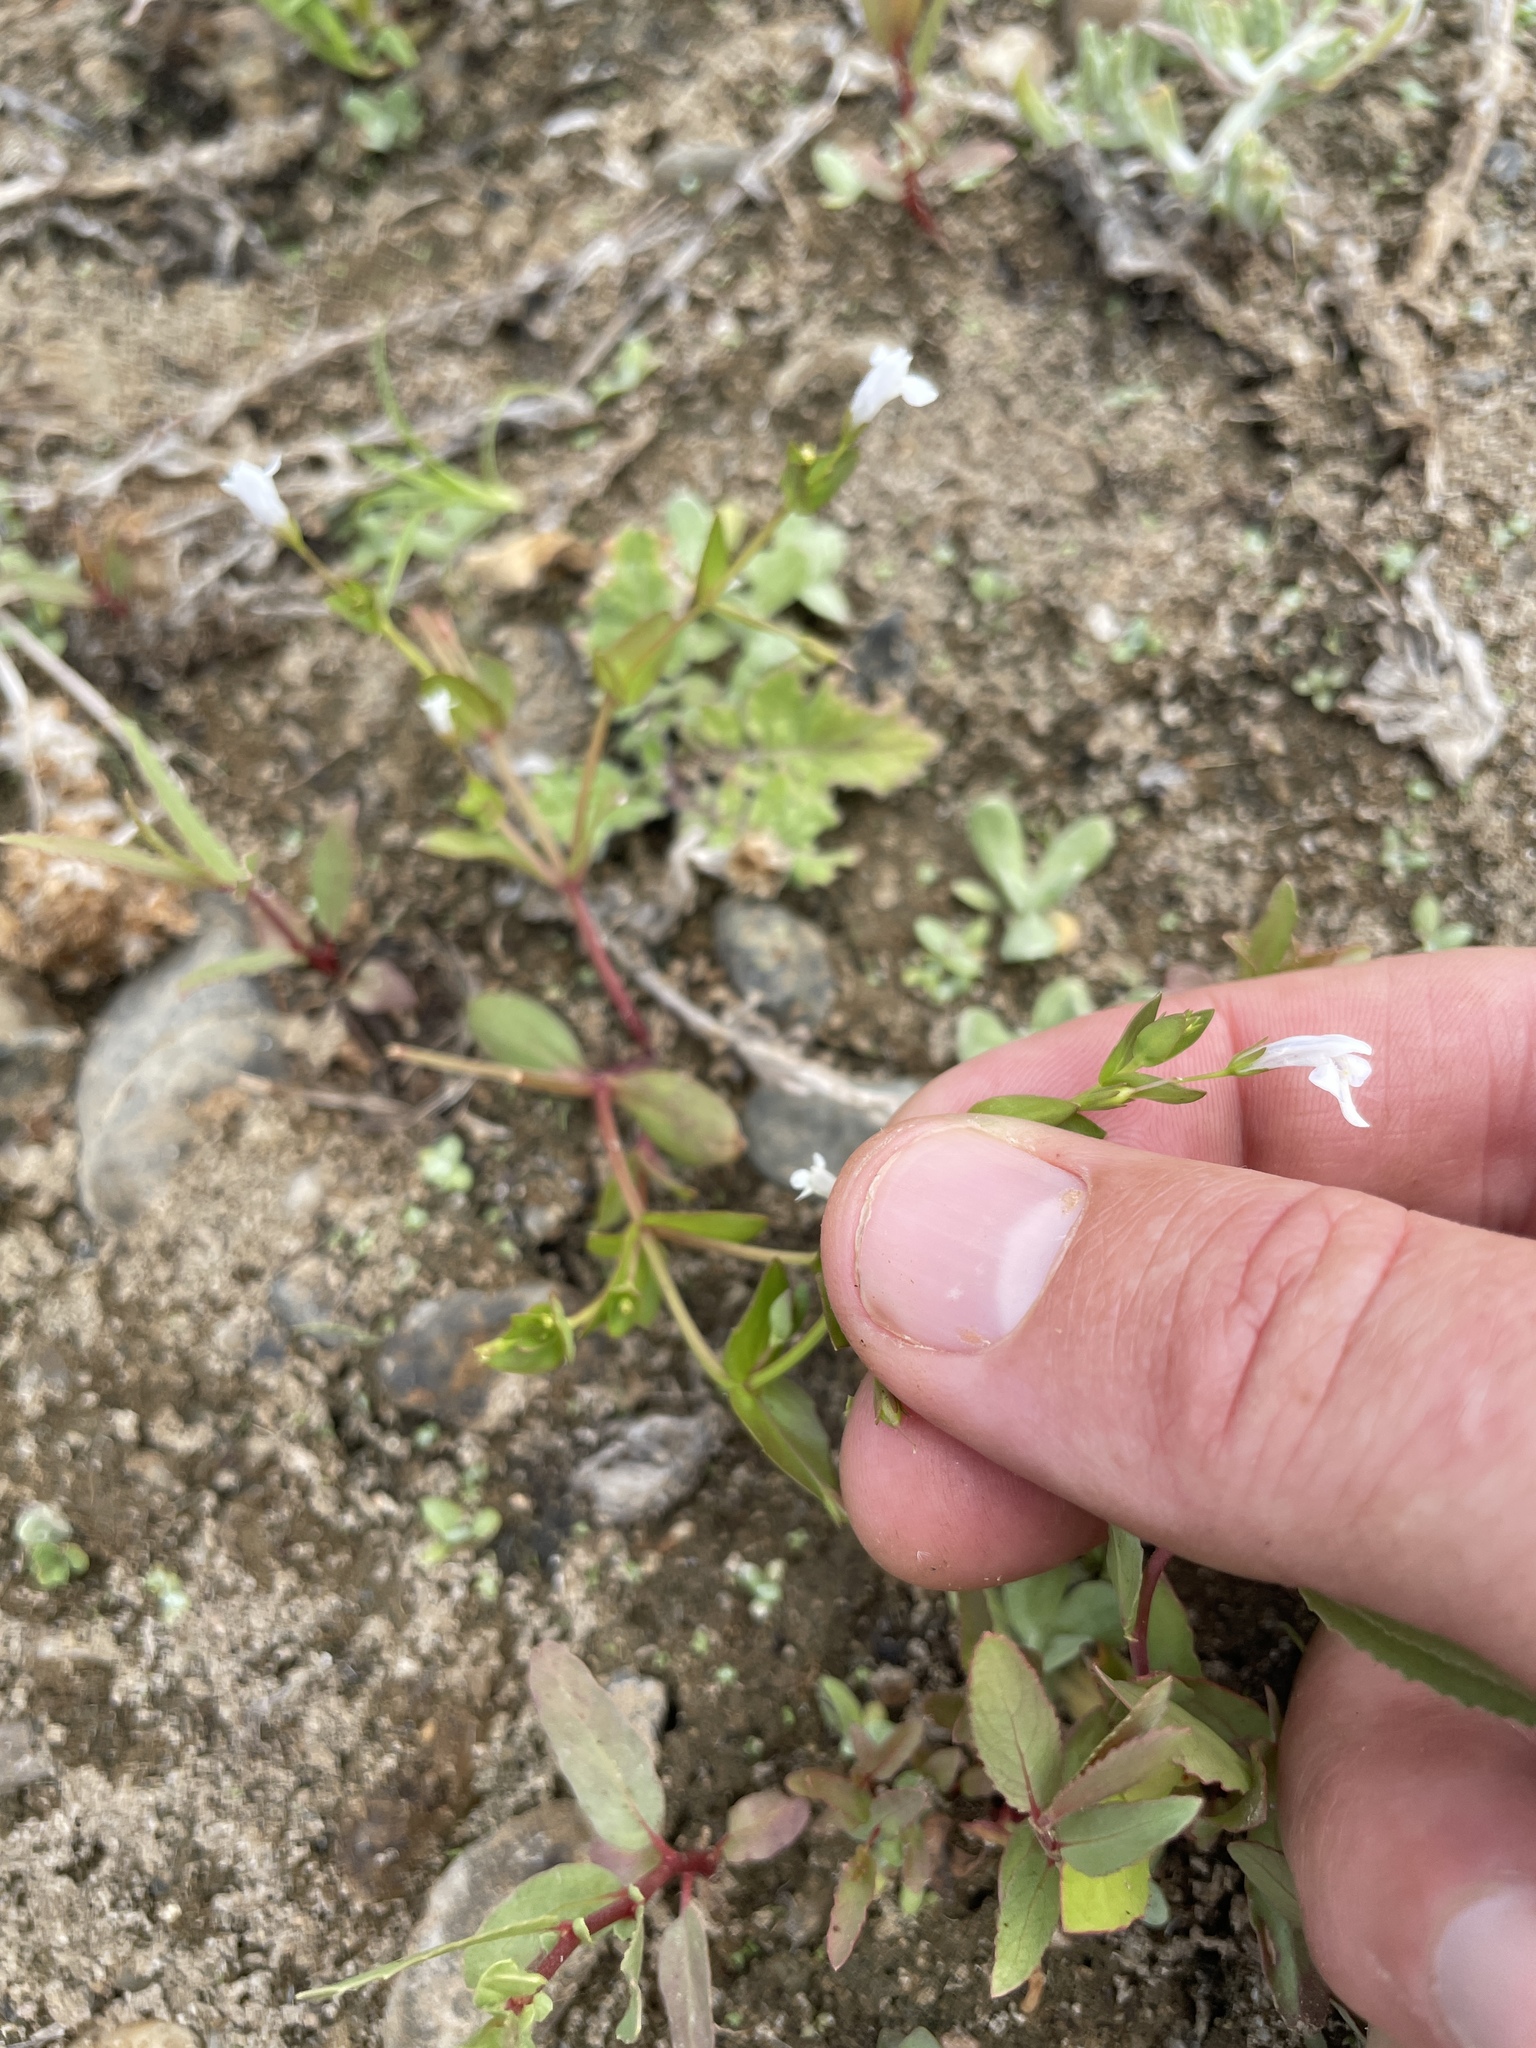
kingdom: Plantae
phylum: Tracheophyta
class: Magnoliopsida
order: Lamiales
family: Linderniaceae
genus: Lindernia
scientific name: Lindernia dubia
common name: Annual false pimpernel
